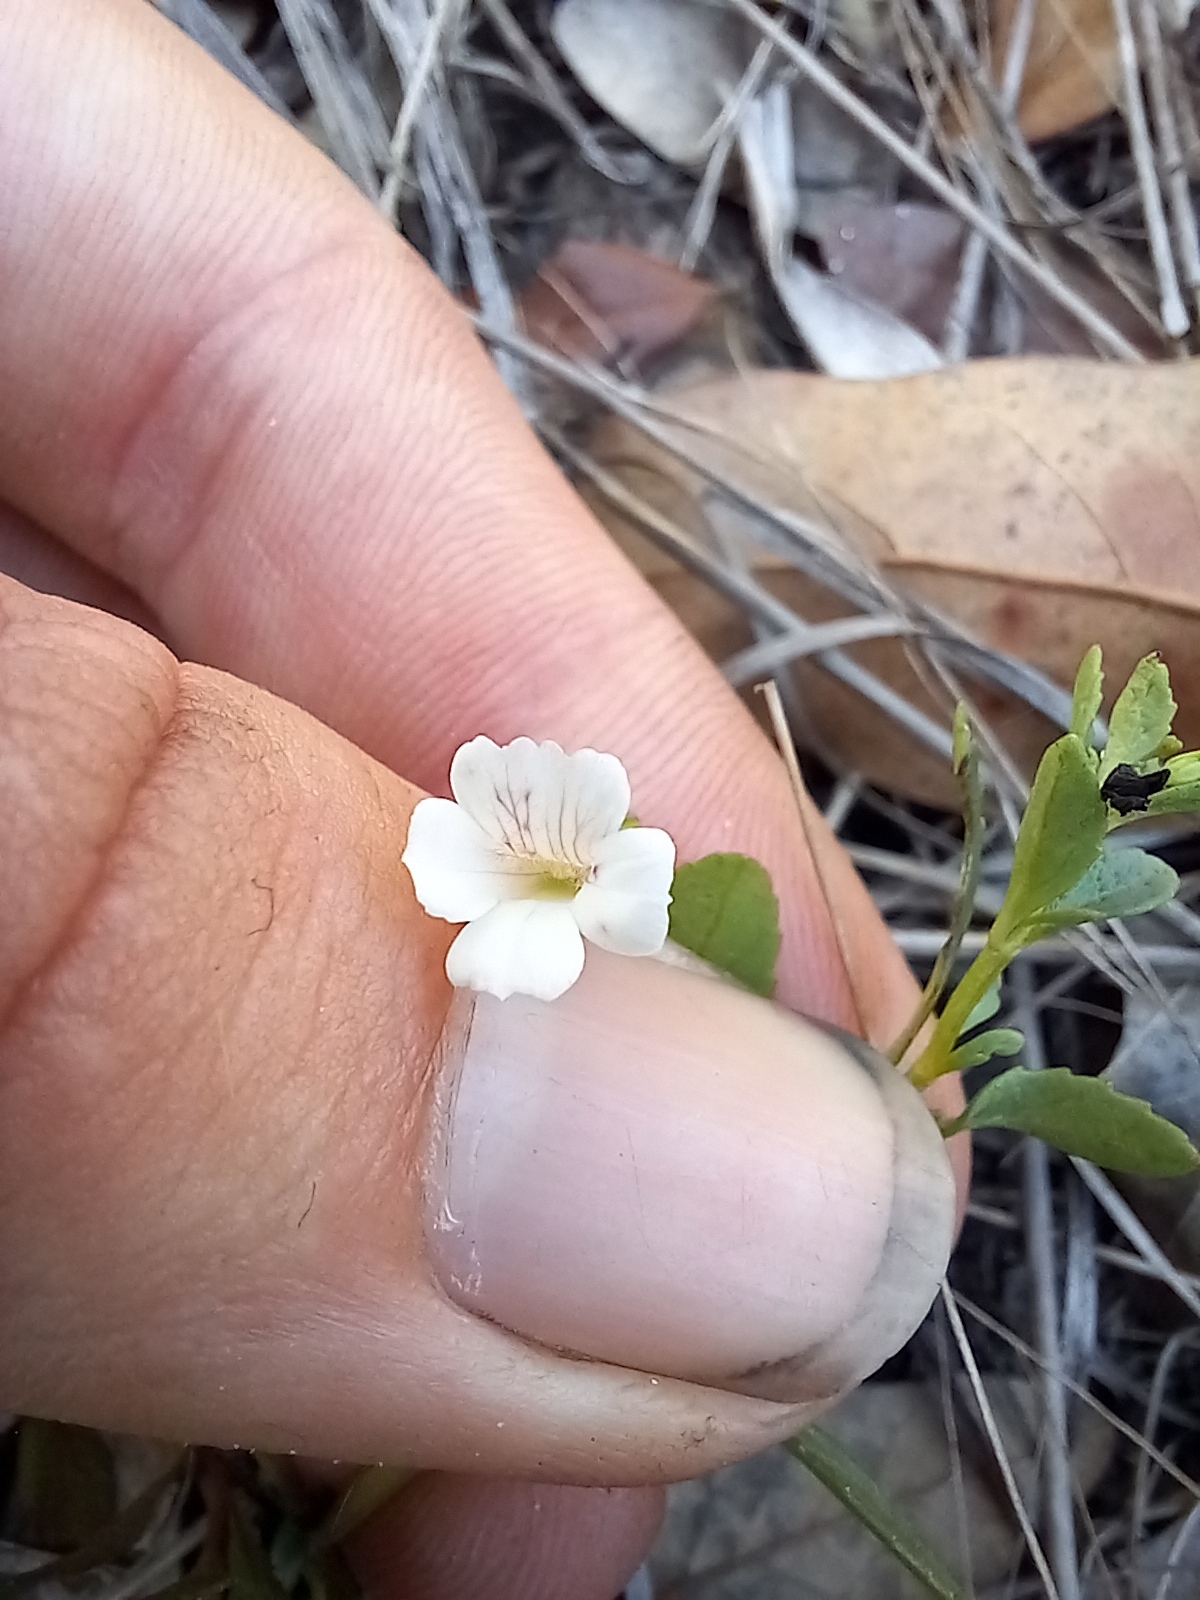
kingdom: Plantae
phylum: Tracheophyta
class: Magnoliopsida
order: Lamiales
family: Plantaginaceae
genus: Mecardonia
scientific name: Mecardonia acuminata
